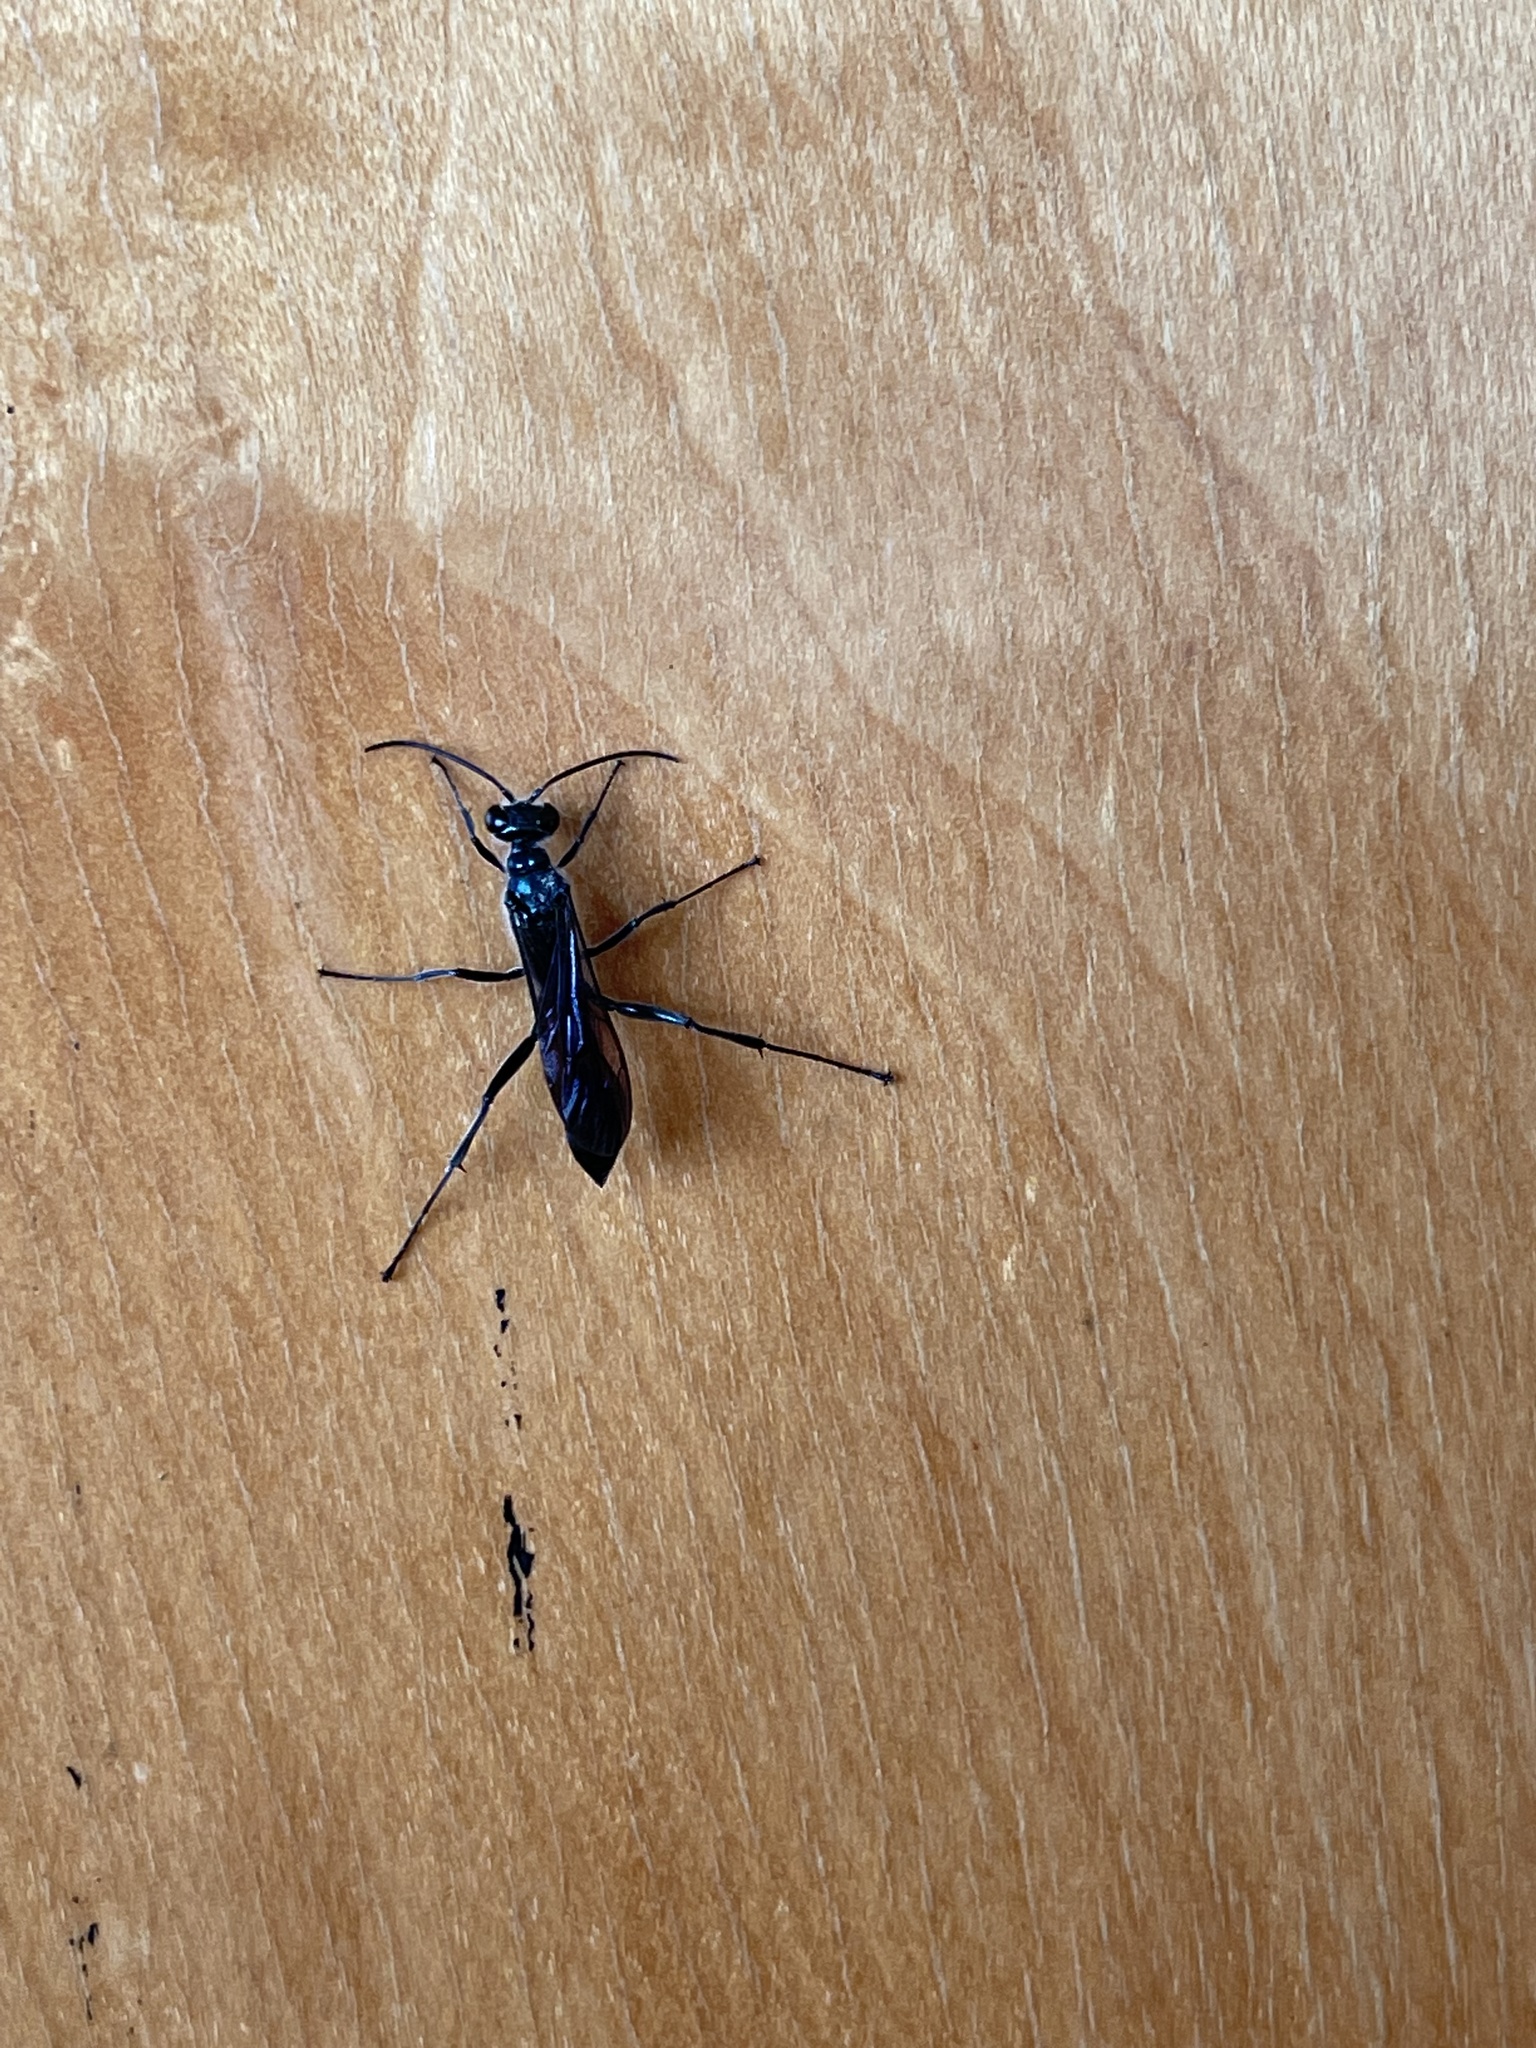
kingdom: Animalia
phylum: Arthropoda
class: Insecta
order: Hymenoptera
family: Sphecidae
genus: Chalybion
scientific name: Chalybion japonicum
